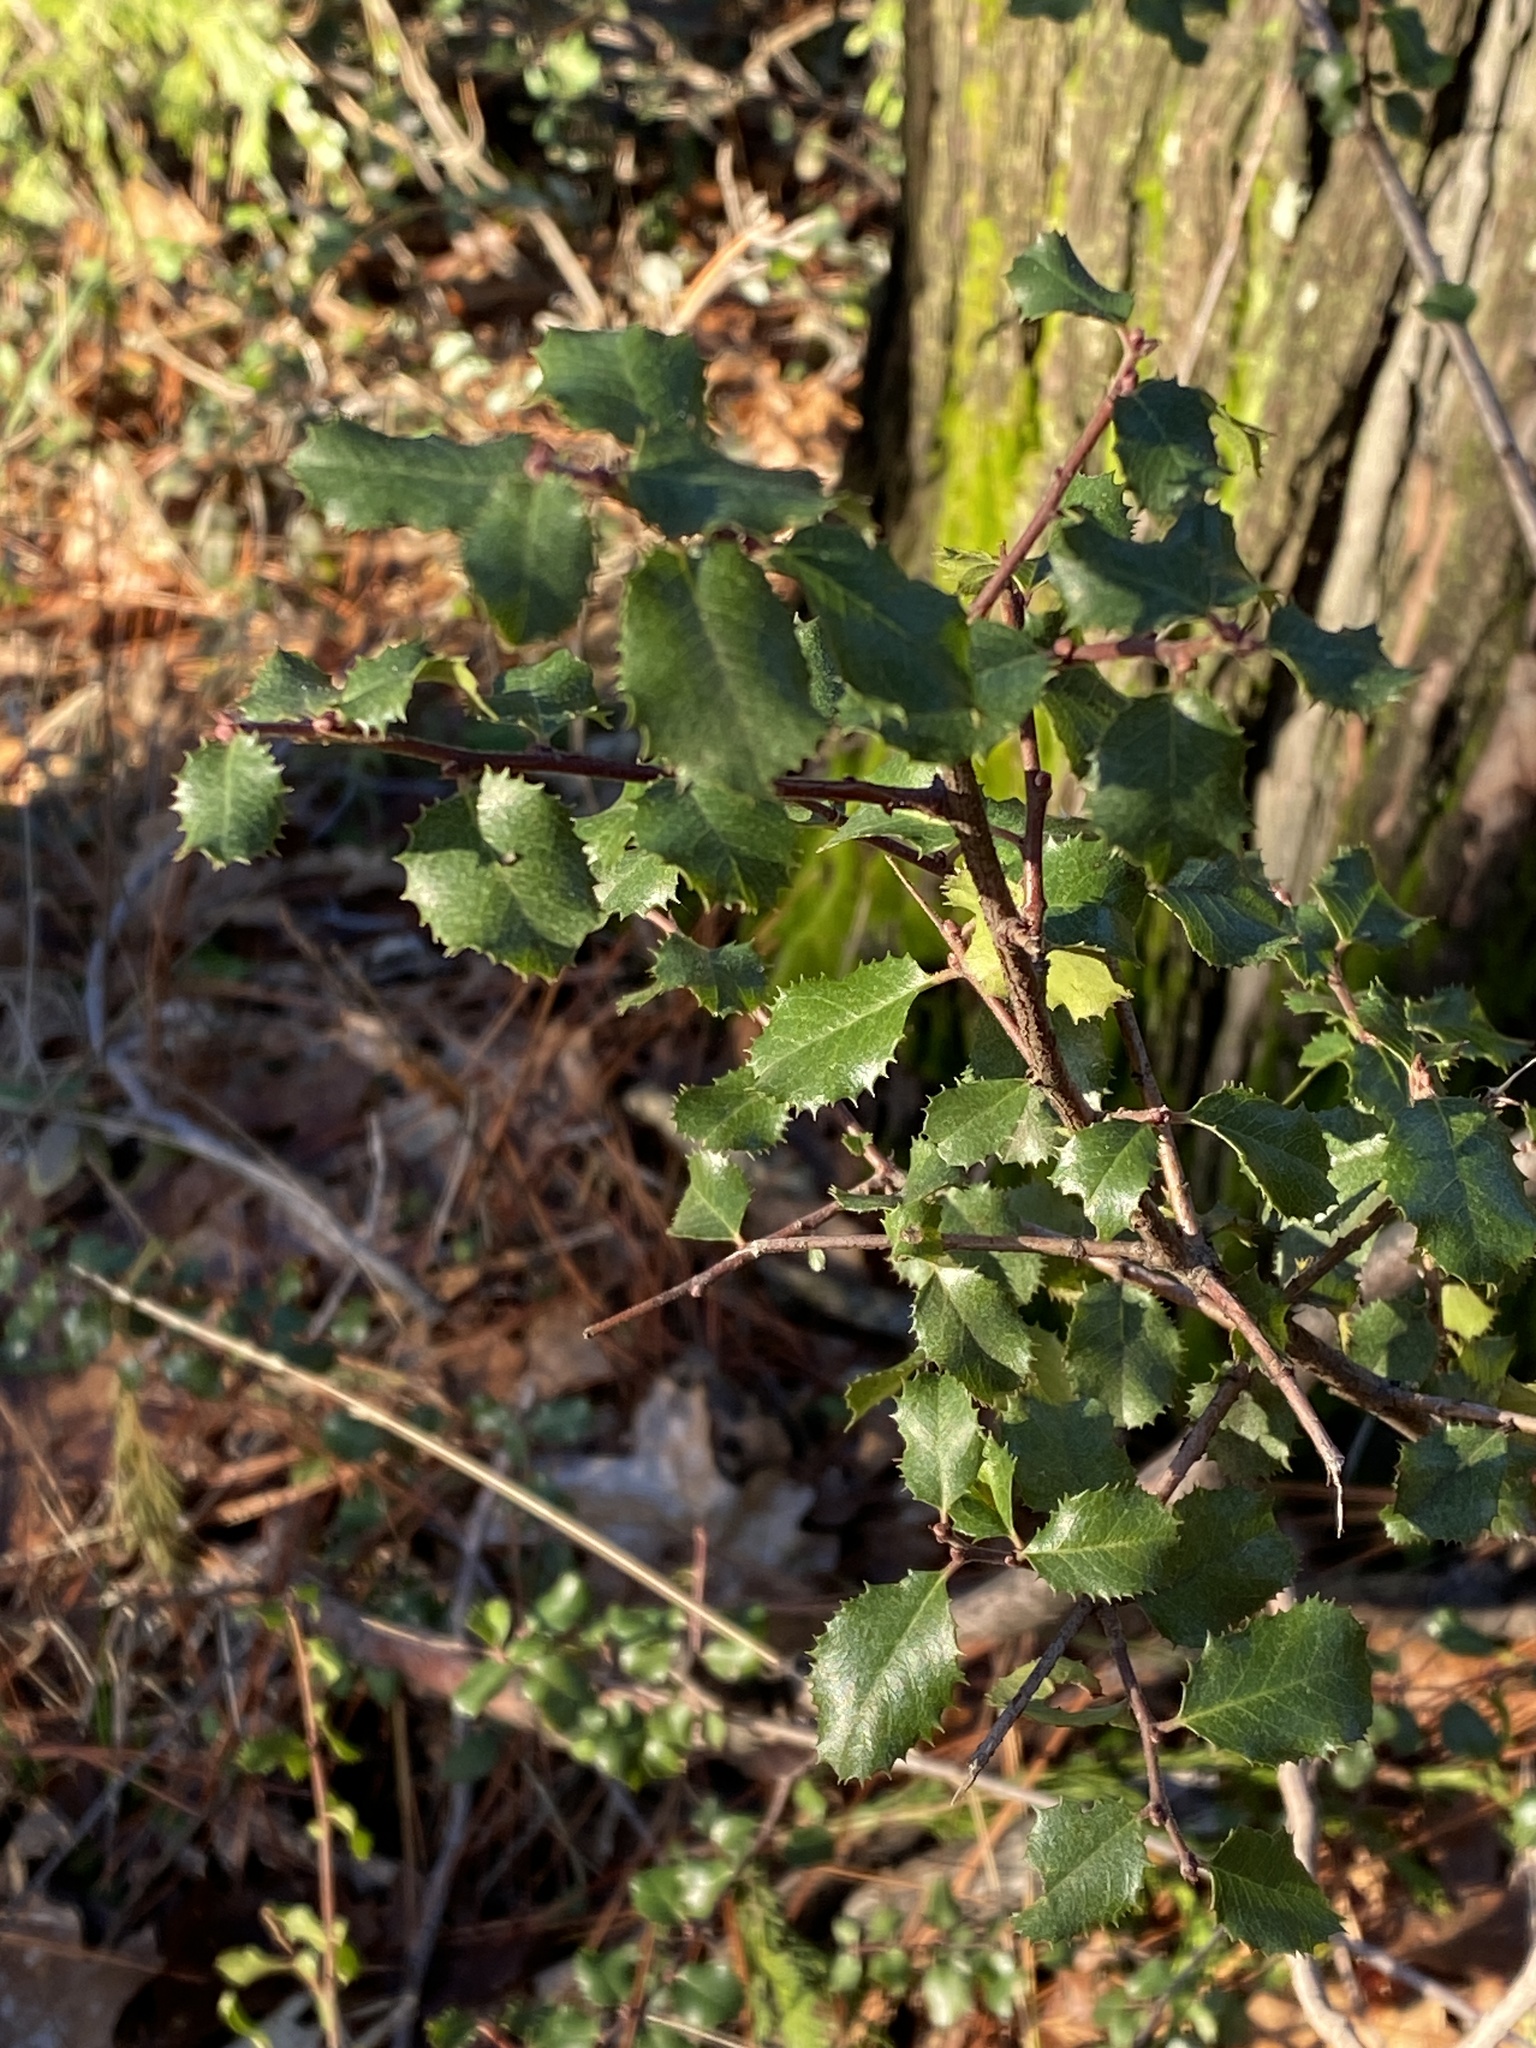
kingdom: Plantae
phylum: Tracheophyta
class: Magnoliopsida
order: Rosales
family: Rhamnaceae
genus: Endotropis
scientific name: Endotropis crocea
